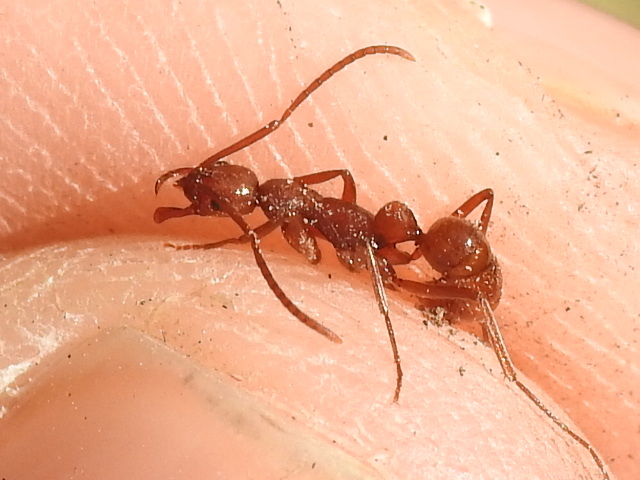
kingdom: Animalia
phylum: Arthropoda
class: Insecta
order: Hymenoptera
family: Formicidae
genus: Leptogenys
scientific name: Leptogenys elongata
